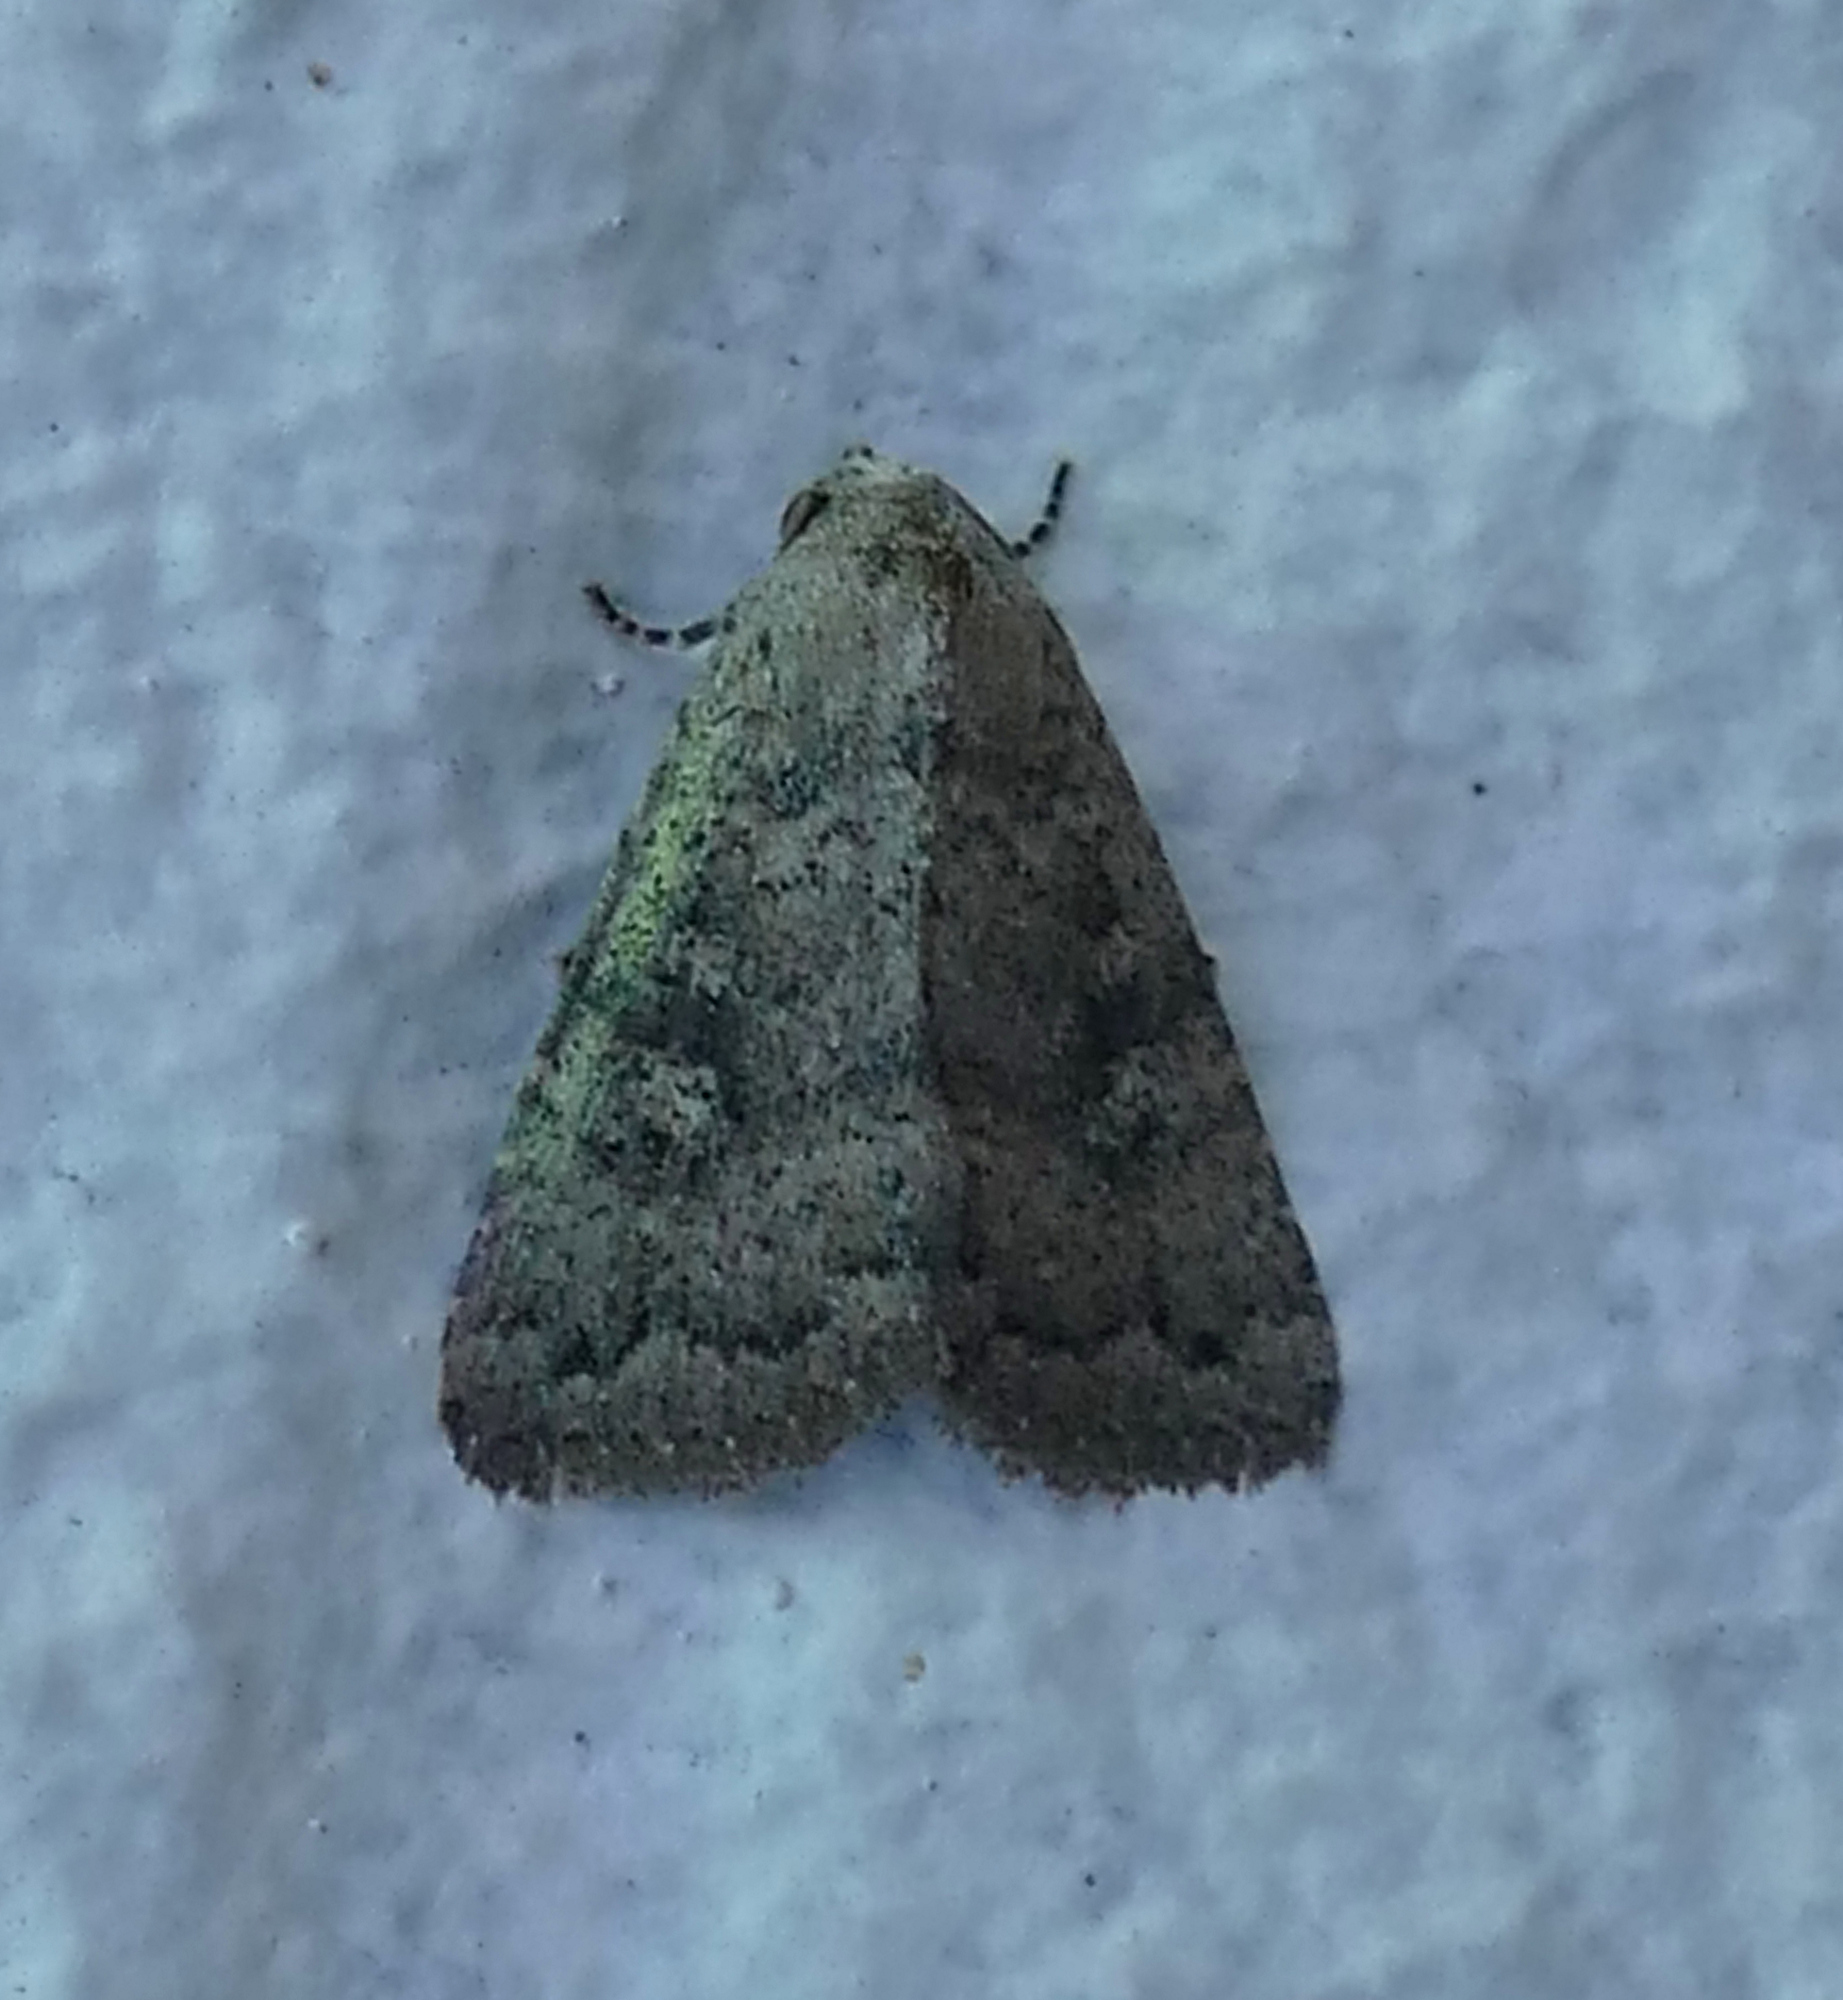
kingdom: Animalia
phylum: Arthropoda
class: Insecta
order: Lepidoptera
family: Noctuidae
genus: Condica
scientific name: Condica sutor
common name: Cobbler moth
